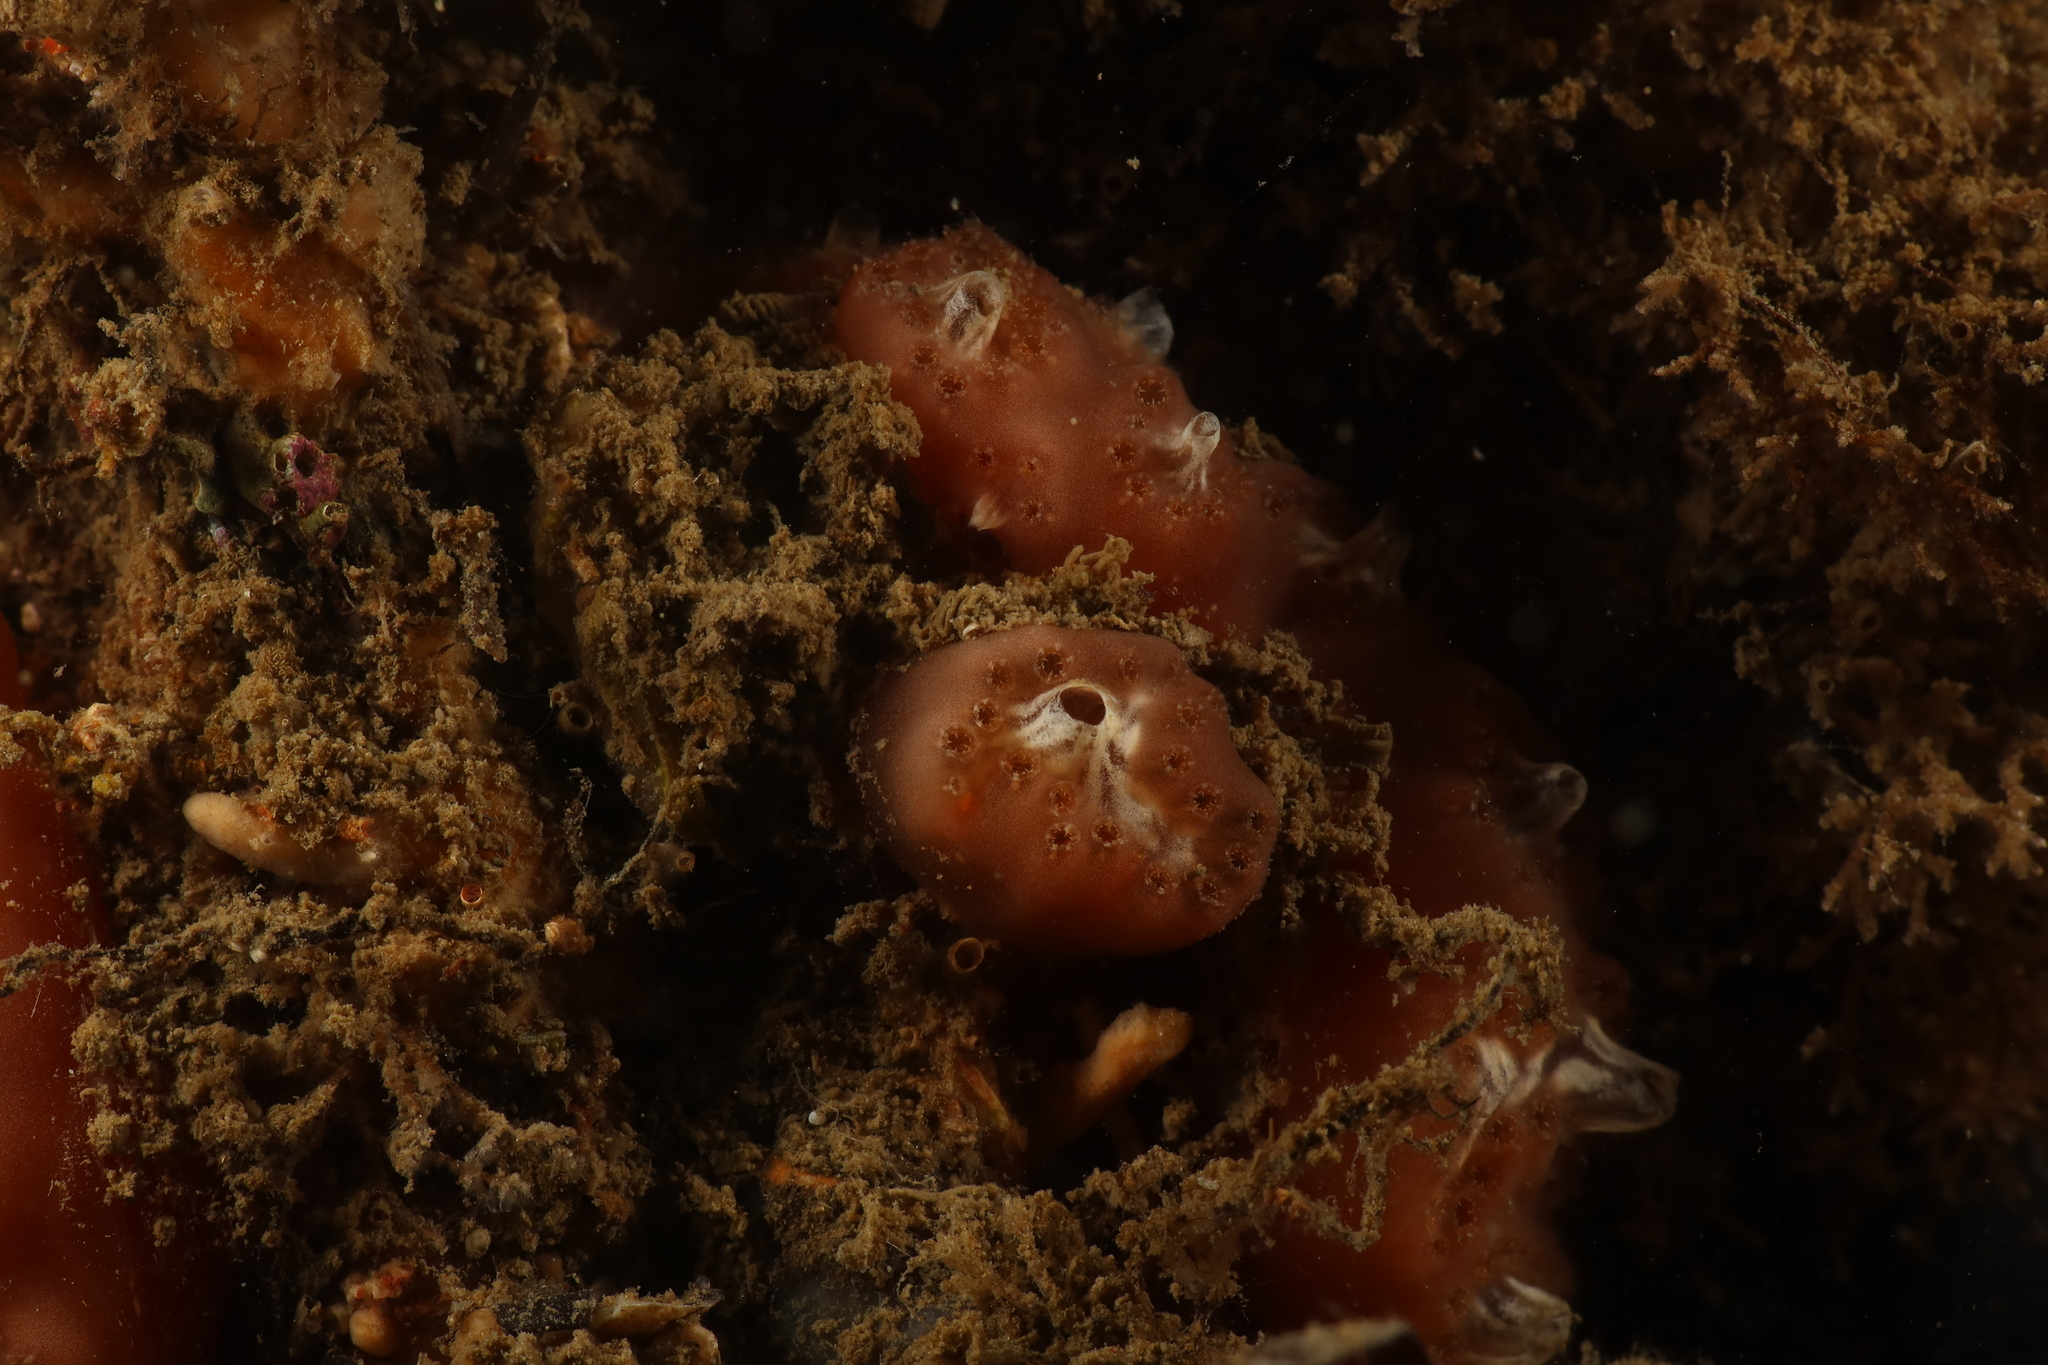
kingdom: Animalia
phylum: Chordata
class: Ascidiacea
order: Aplousobranchia
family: Polyclinidae
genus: Aplidium
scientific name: Aplidium nordmanni
